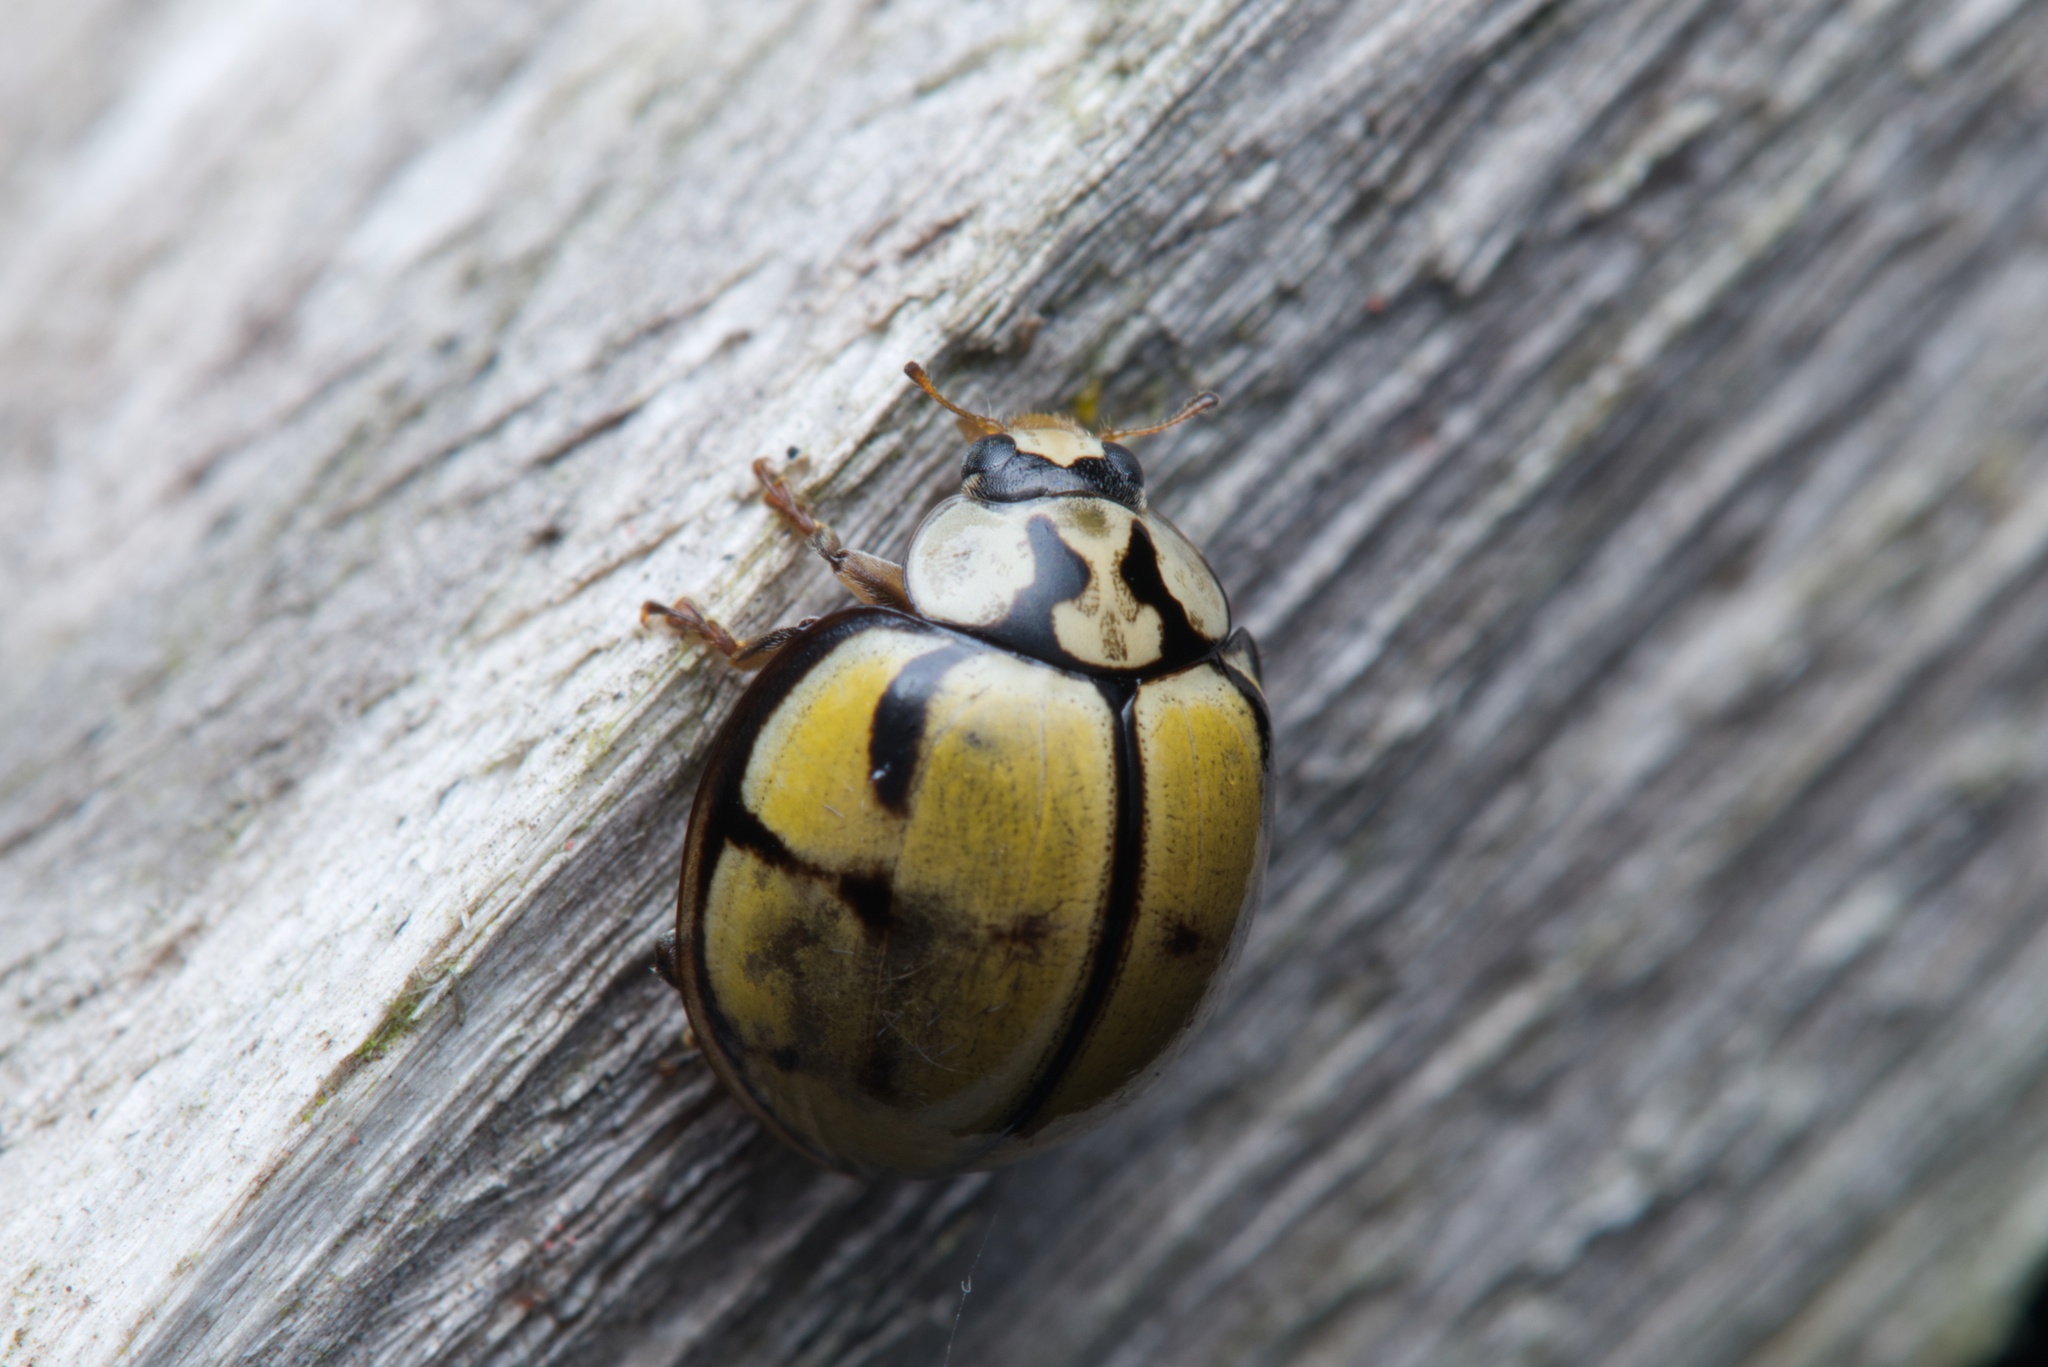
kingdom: Animalia
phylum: Arthropoda
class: Insecta
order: Coleoptera
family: Coccinellidae
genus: Harmonia
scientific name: Harmonia
